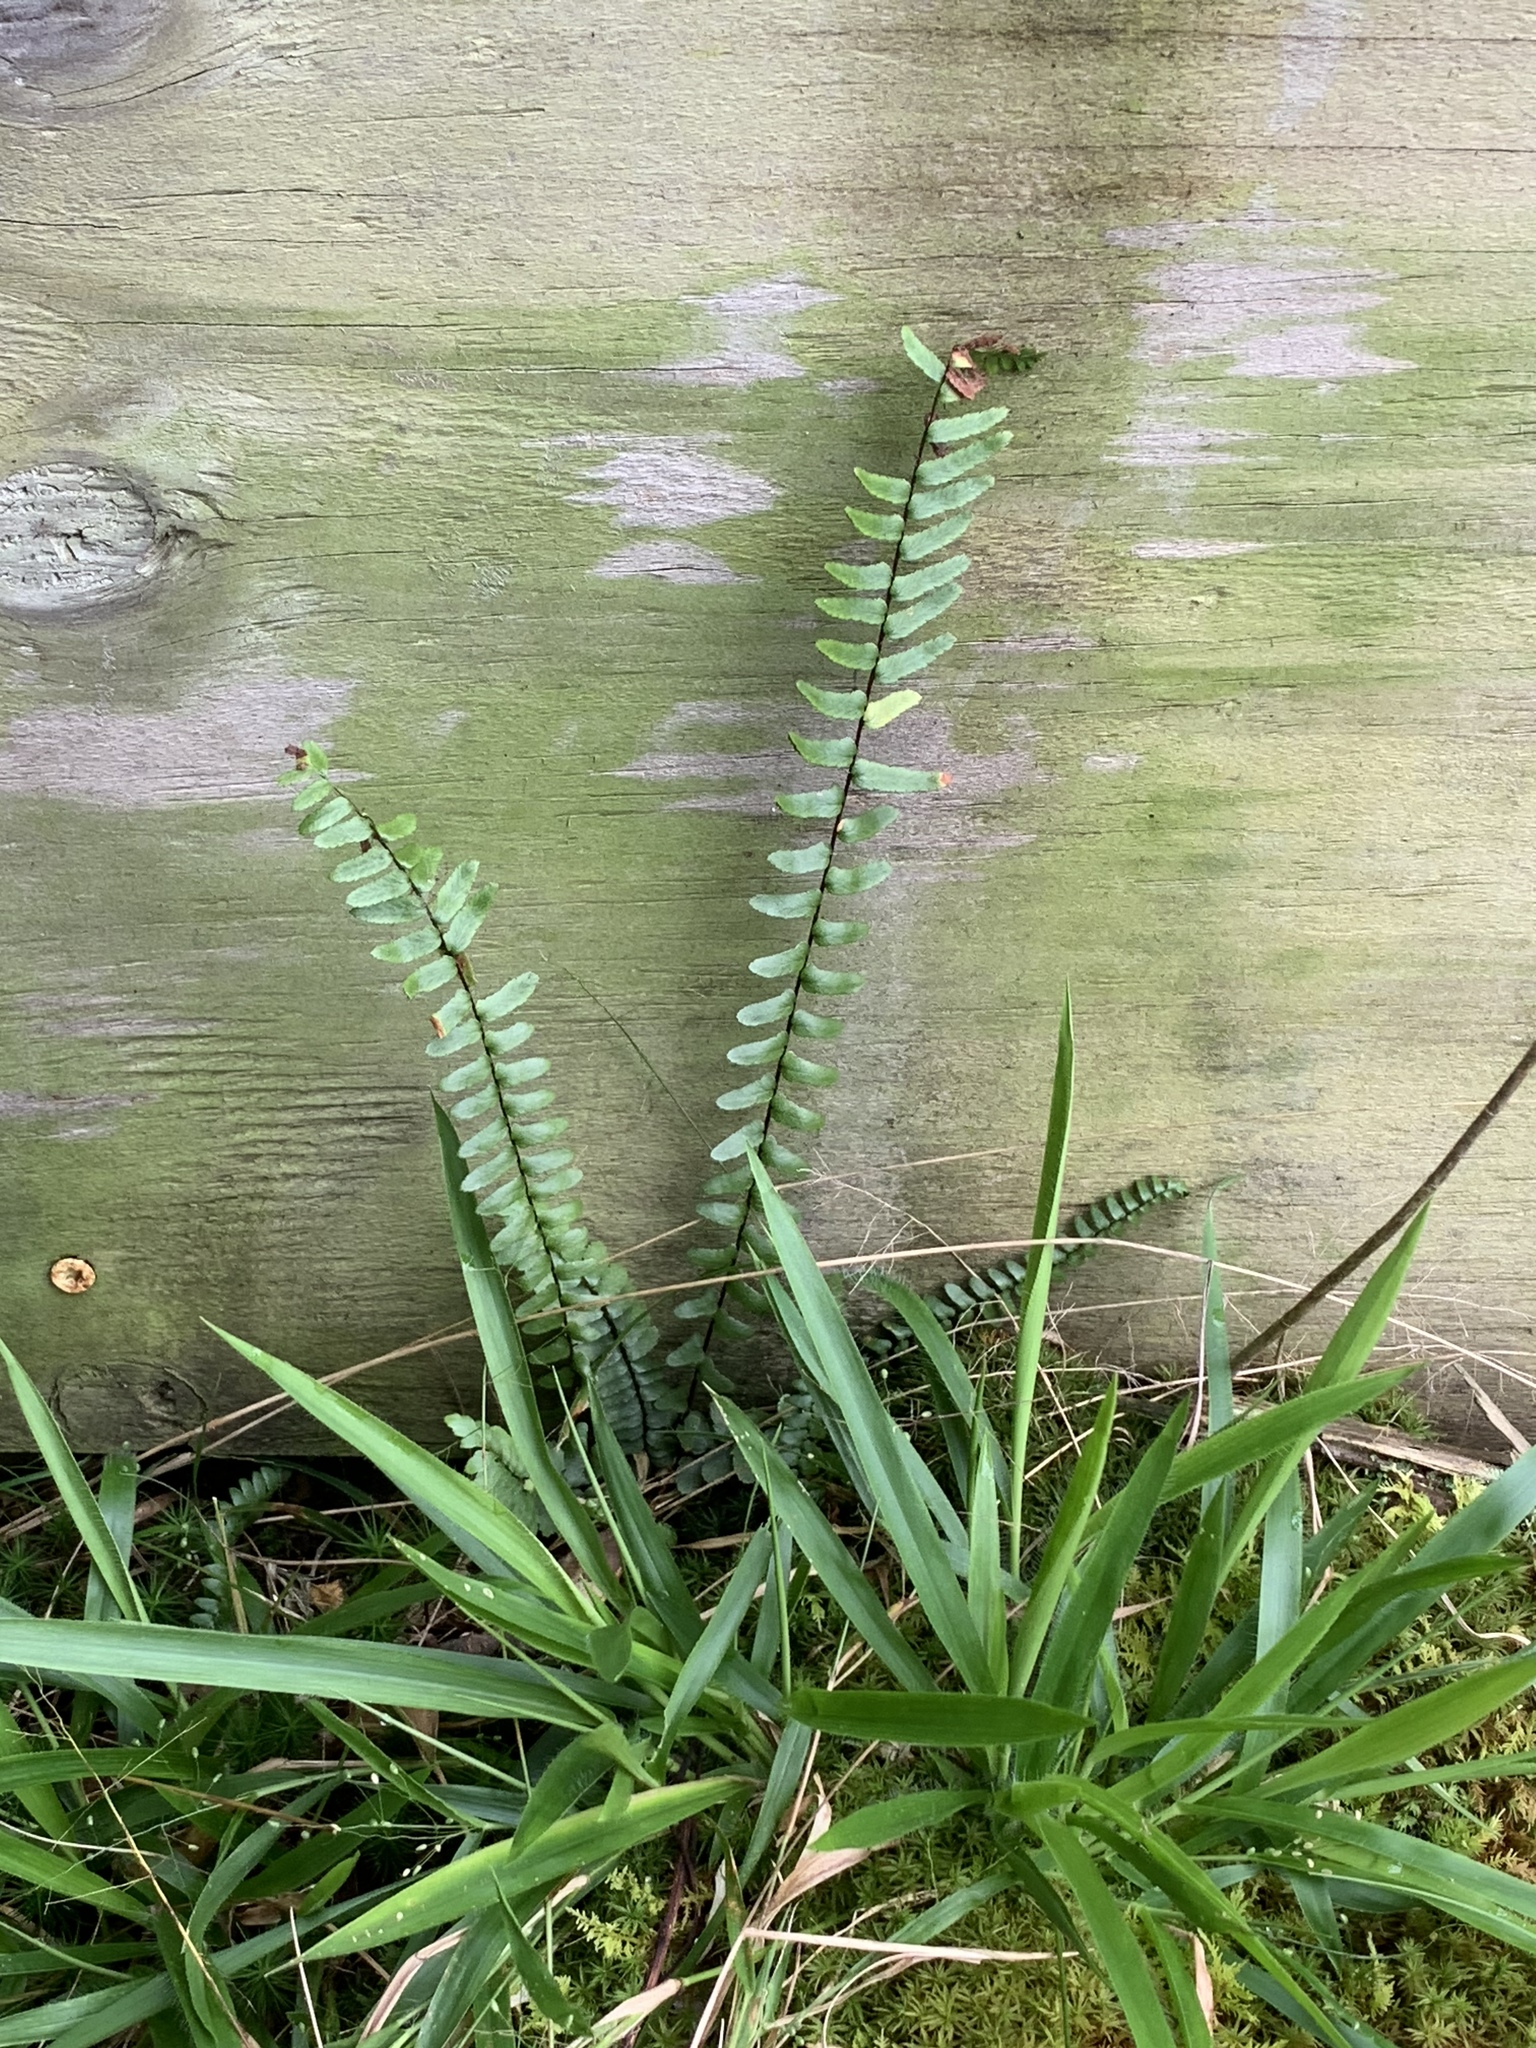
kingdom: Plantae
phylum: Tracheophyta
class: Polypodiopsida
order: Polypodiales
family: Aspleniaceae
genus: Asplenium
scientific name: Asplenium platyneuron
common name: Ebony spleenwort
